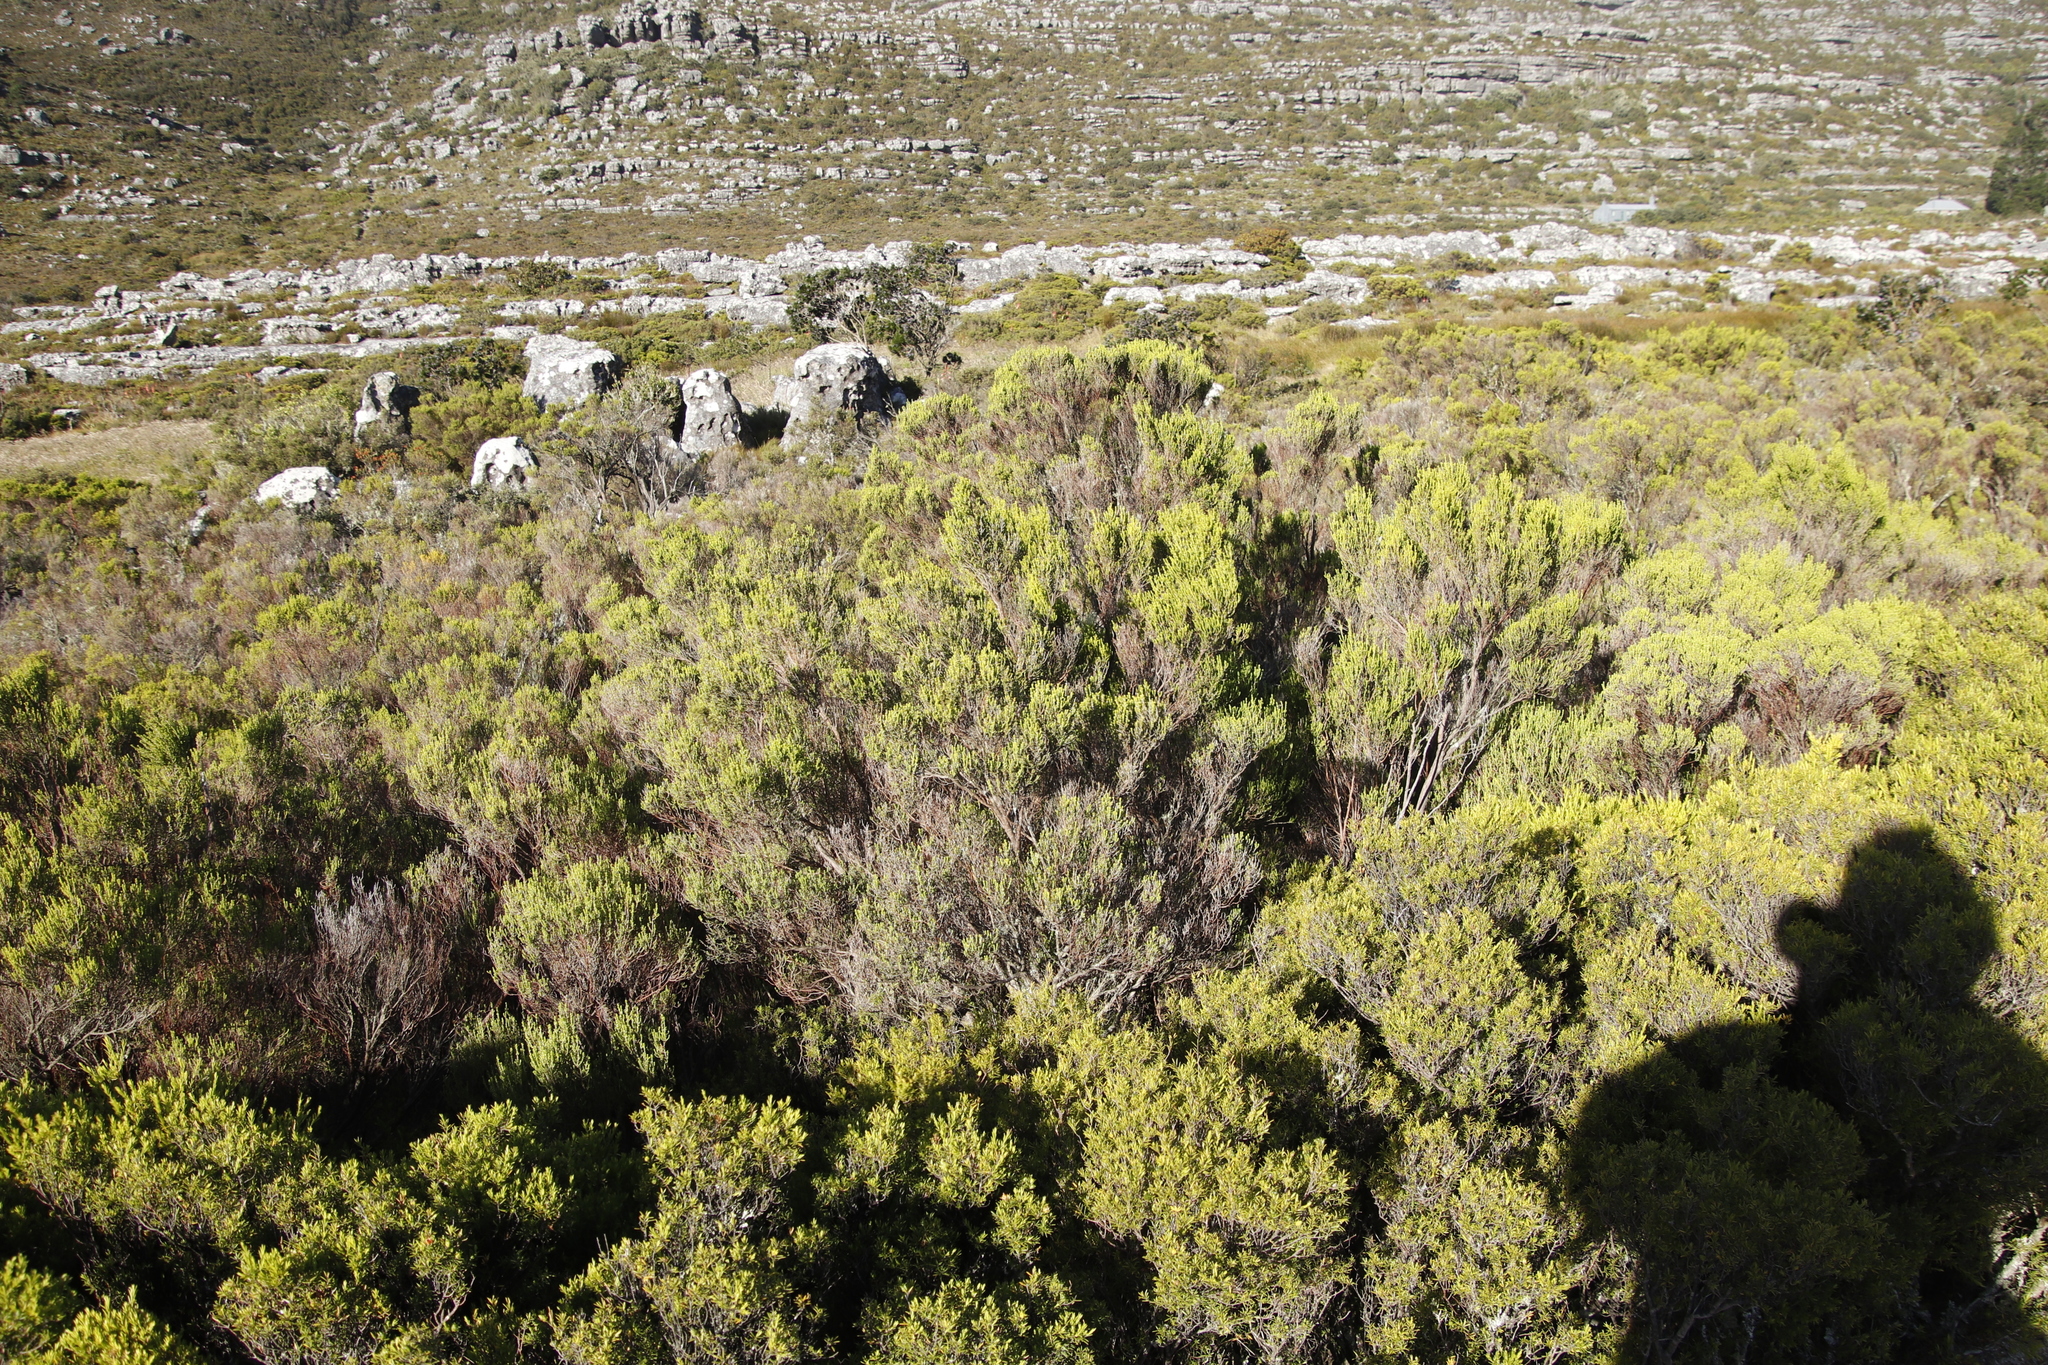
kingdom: Plantae
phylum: Tracheophyta
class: Magnoliopsida
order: Ericales
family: Ericaceae
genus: Erica
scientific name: Erica tristis
